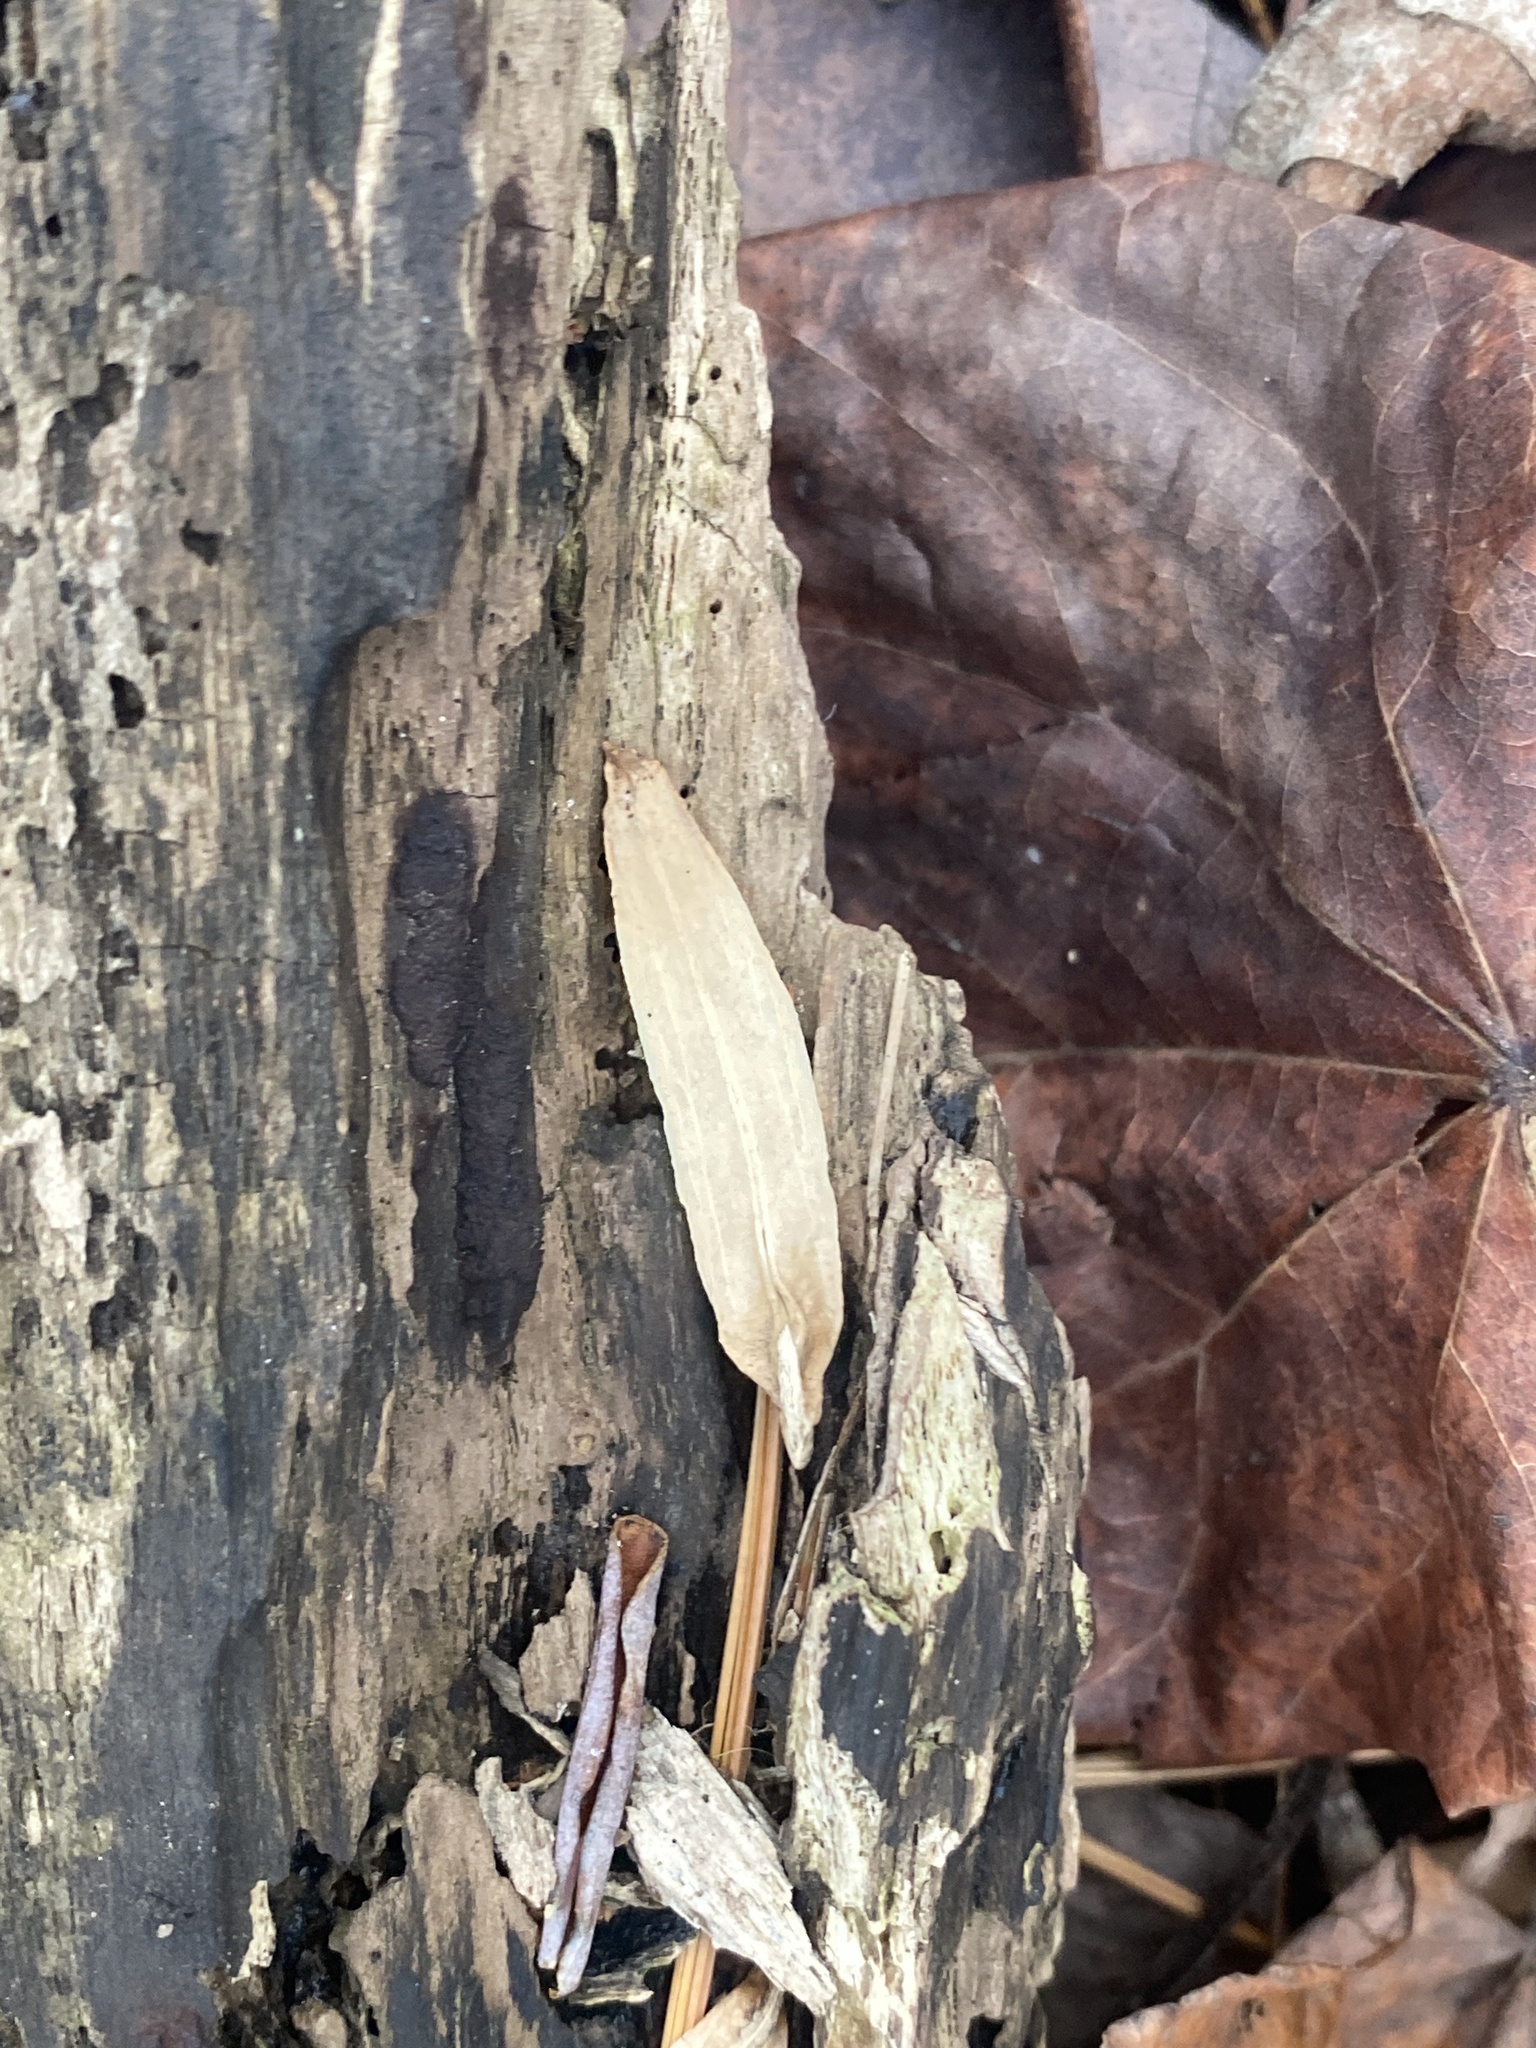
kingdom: Plantae
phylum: Tracheophyta
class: Magnoliopsida
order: Magnoliales
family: Magnoliaceae
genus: Liriodendron
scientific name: Liriodendron tulipifera
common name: Tulip tree
